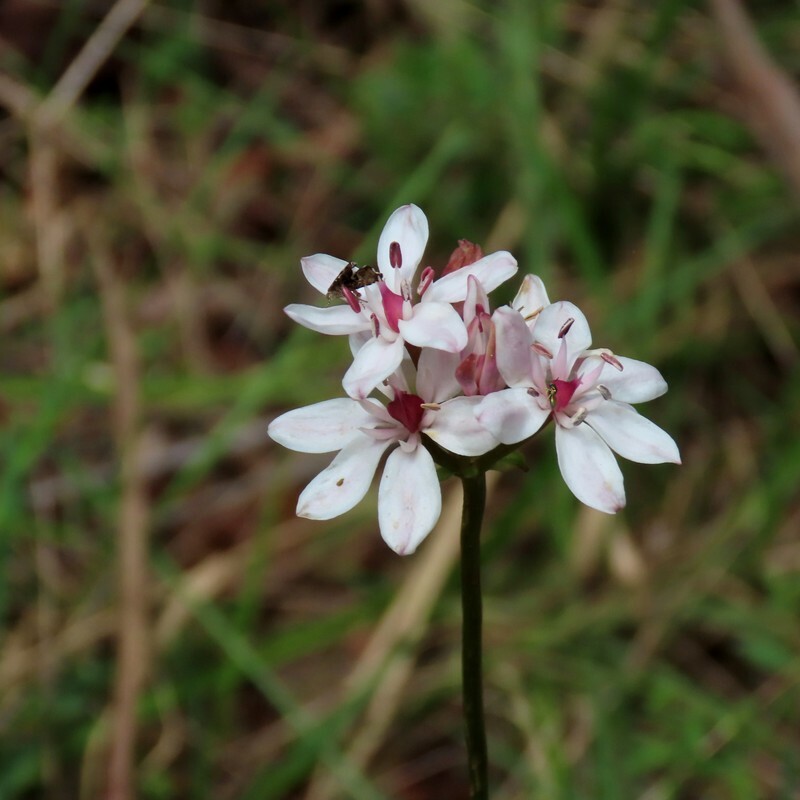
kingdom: Plantae
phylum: Tracheophyta
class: Liliopsida
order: Liliales
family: Colchicaceae
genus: Burchardia
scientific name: Burchardia umbellata
